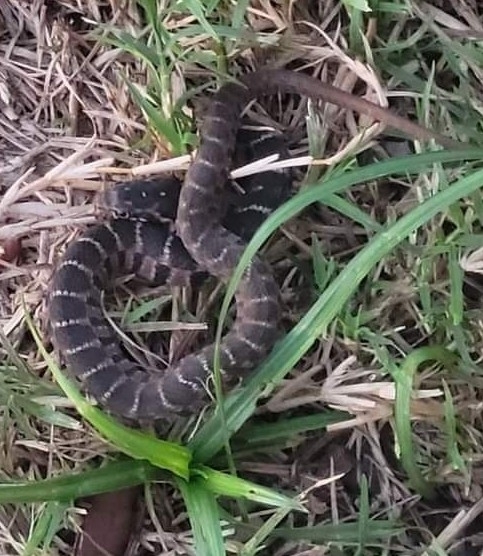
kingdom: Animalia
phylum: Chordata
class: Squamata
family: Colubridae
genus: Nerodia
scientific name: Nerodia erythrogaster
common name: Plainbelly water snake
